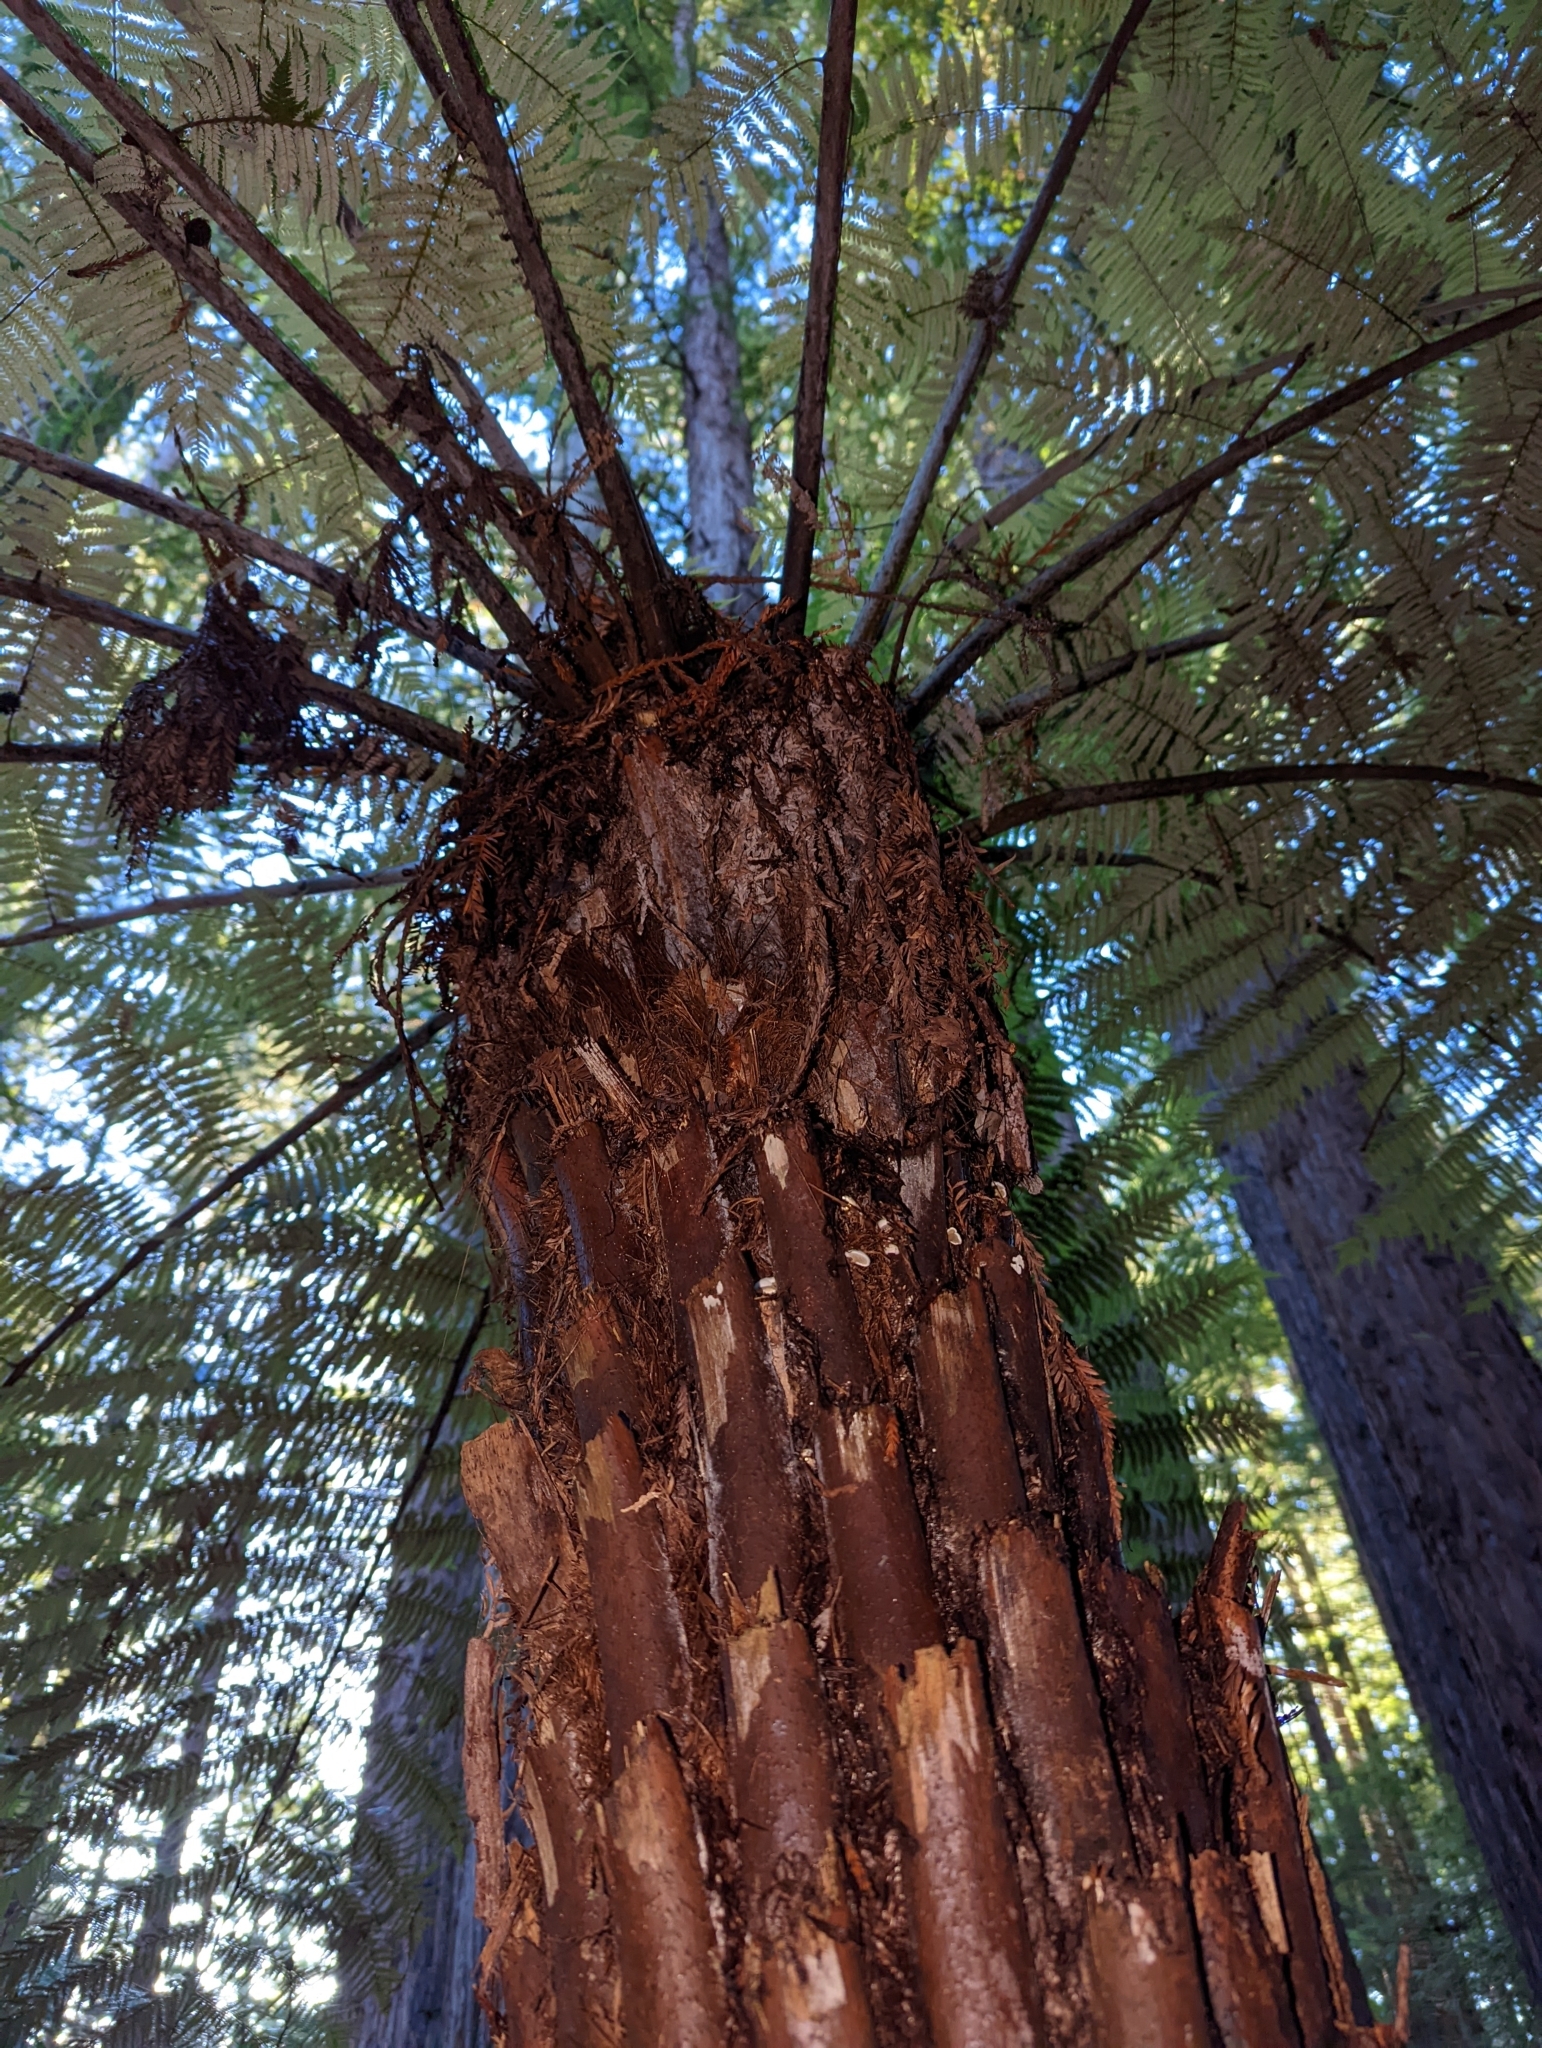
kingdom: Fungi
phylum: Basidiomycota
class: Agaricomycetes
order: Gomphales
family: Clavariadelphaceae
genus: Beenakia
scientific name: Beenakia dacostae
